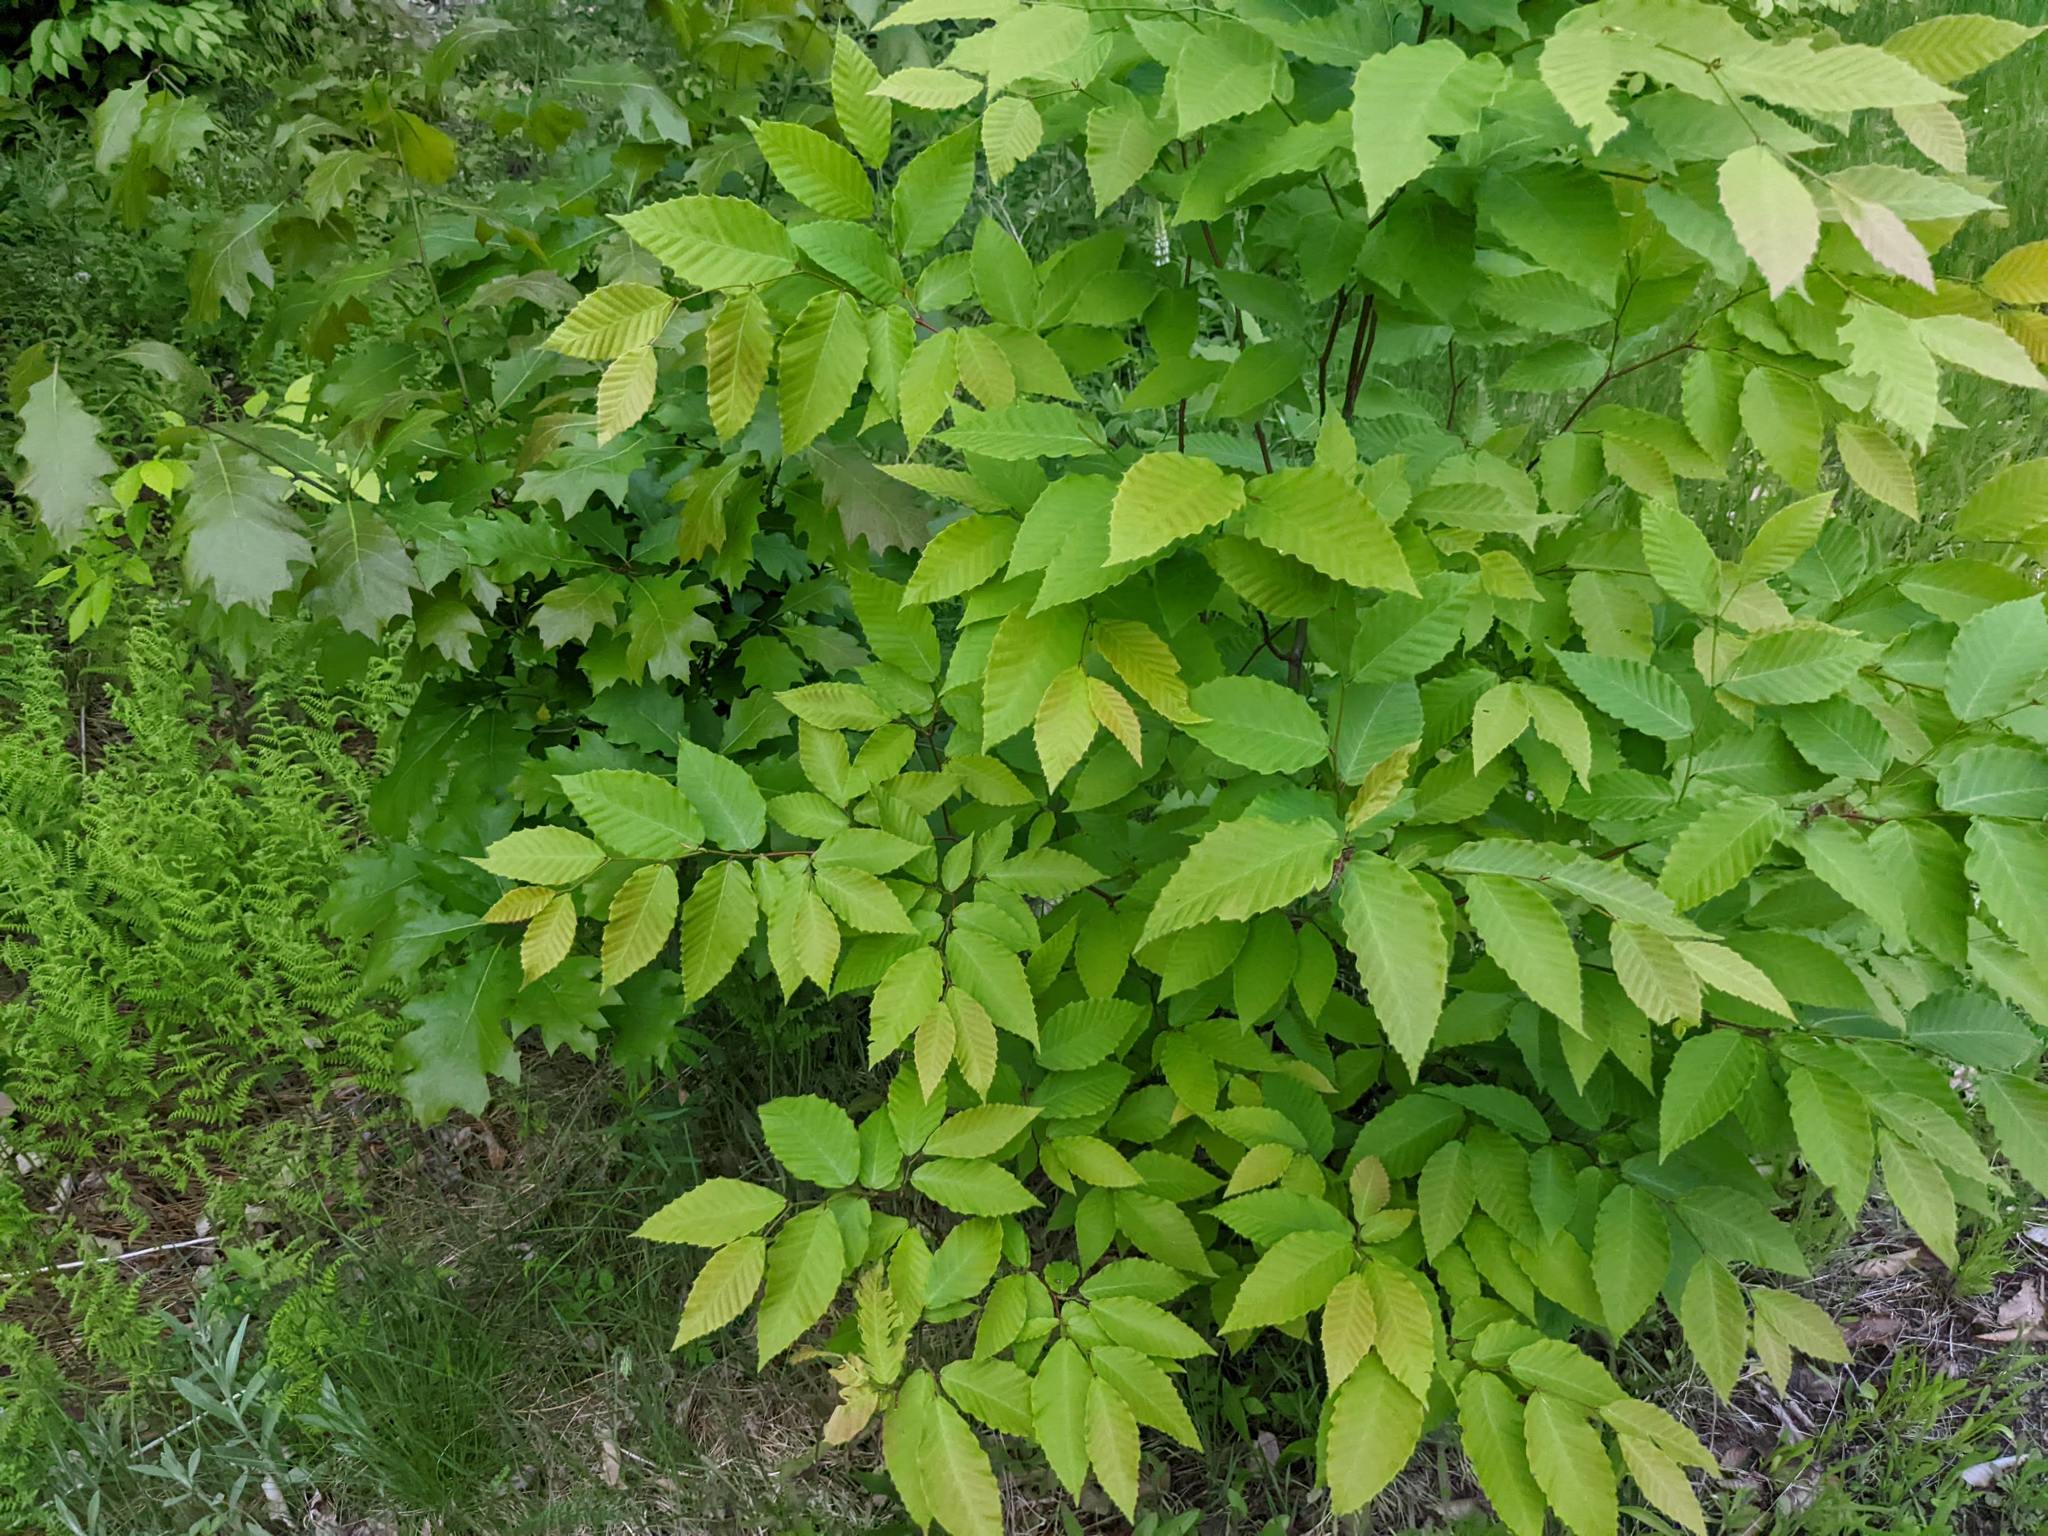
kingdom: Plantae
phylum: Tracheophyta
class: Magnoliopsida
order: Fagales
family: Fagaceae
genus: Fagus
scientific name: Fagus grandifolia
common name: American beech
